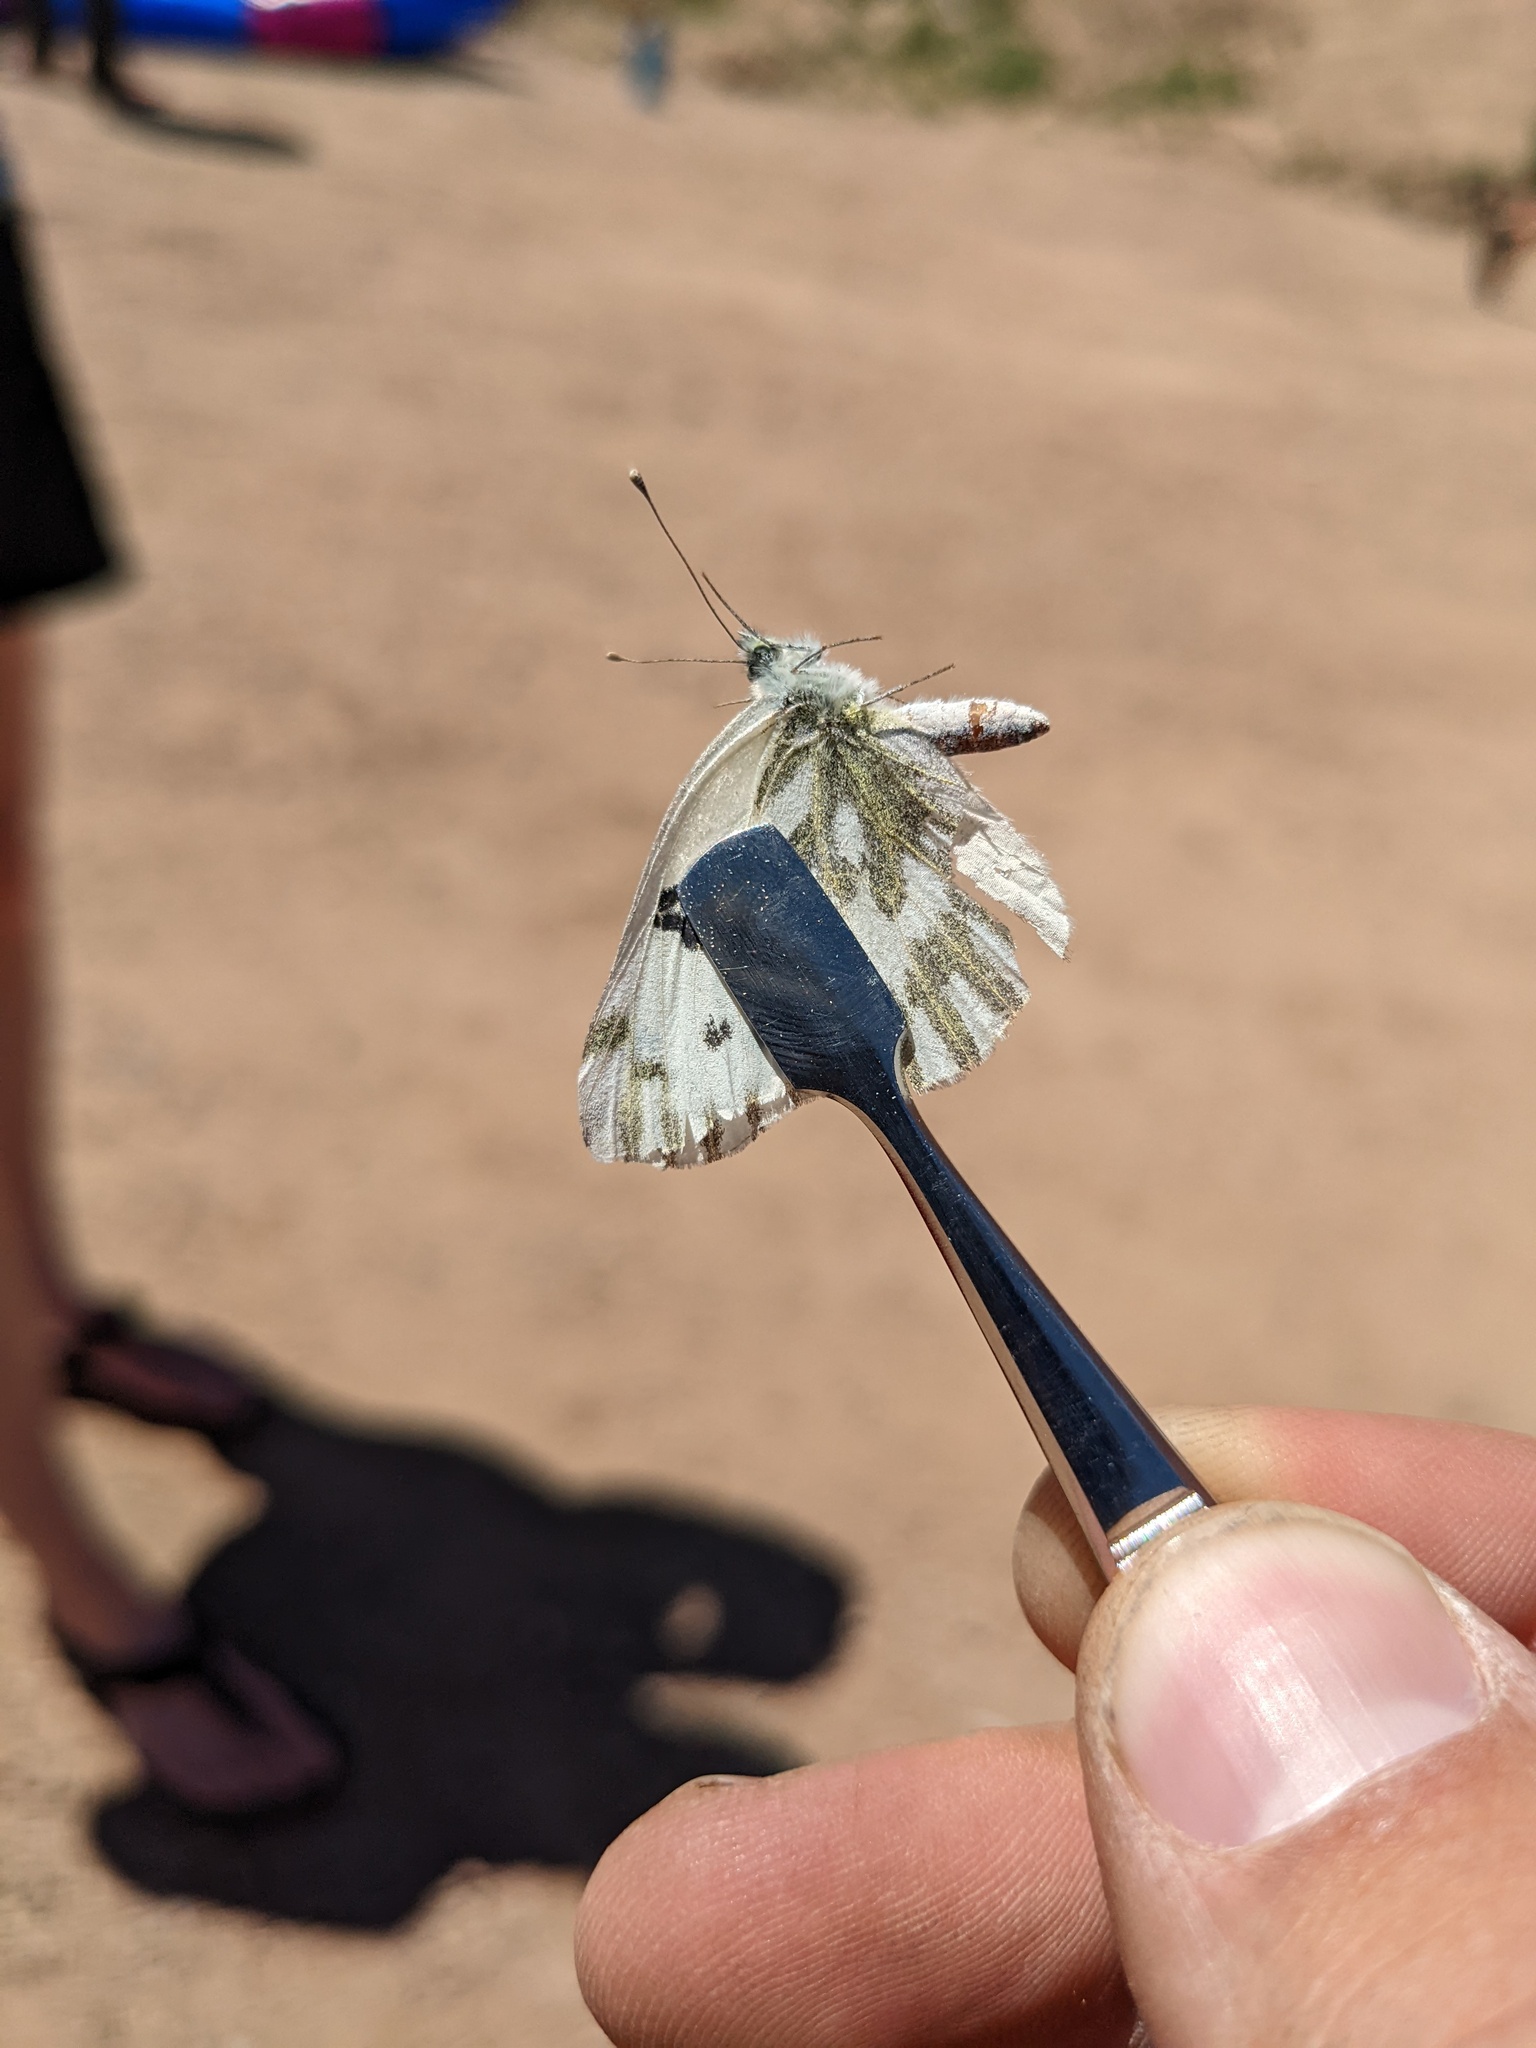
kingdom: Animalia
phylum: Arthropoda
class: Insecta
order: Lepidoptera
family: Pieridae
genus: Pontia
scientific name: Pontia beckerii
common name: Becker's white
